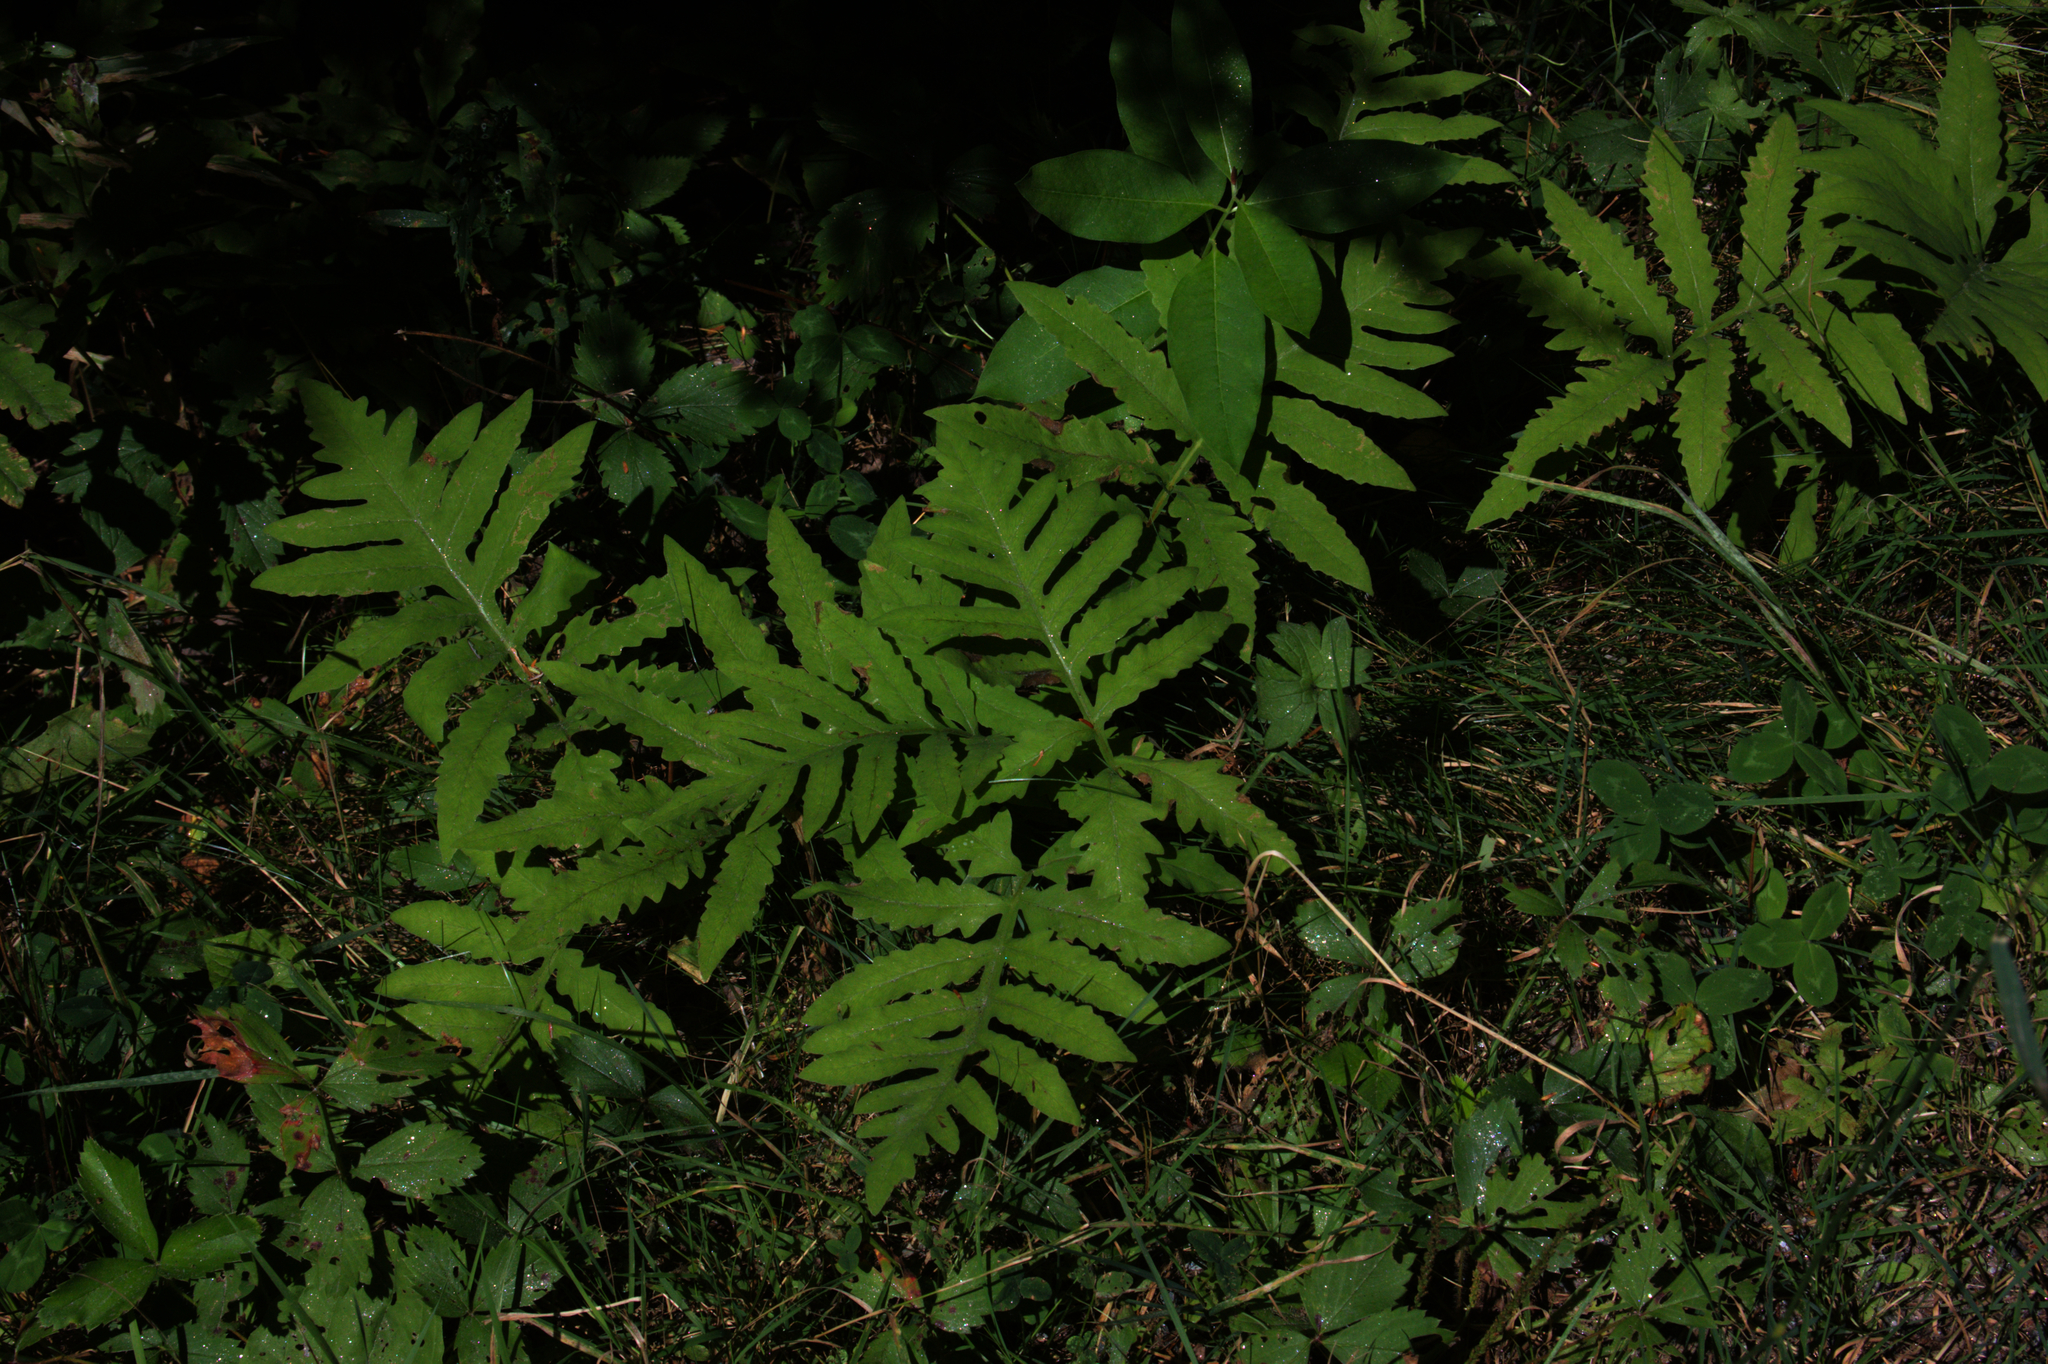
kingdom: Plantae
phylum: Tracheophyta
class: Polypodiopsida
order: Polypodiales
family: Onocleaceae
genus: Onoclea
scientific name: Onoclea sensibilis
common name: Sensitive fern
